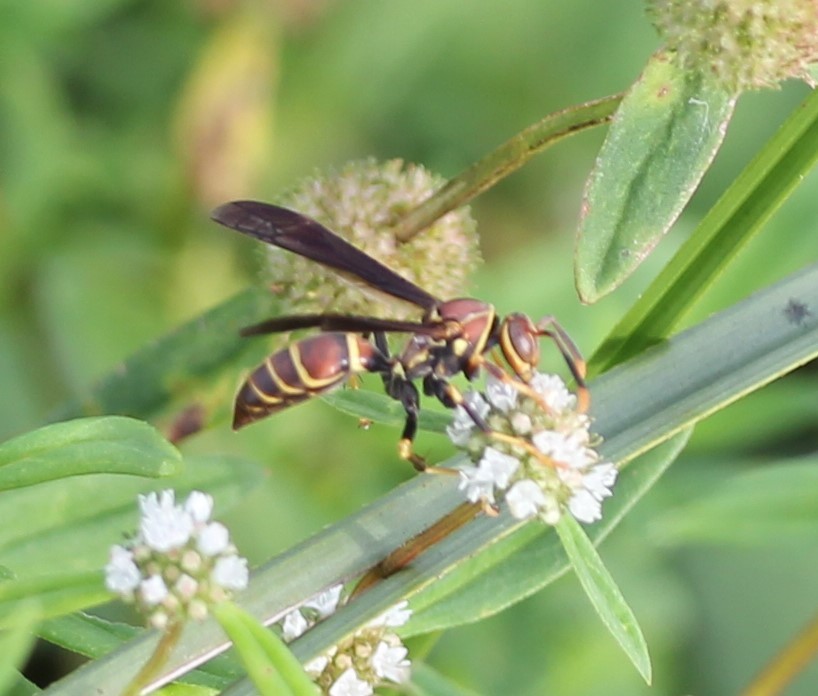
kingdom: Animalia
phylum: Arthropoda
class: Insecta
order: Hymenoptera
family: Eumenidae
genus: Polistes
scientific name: Polistes bahamensis
